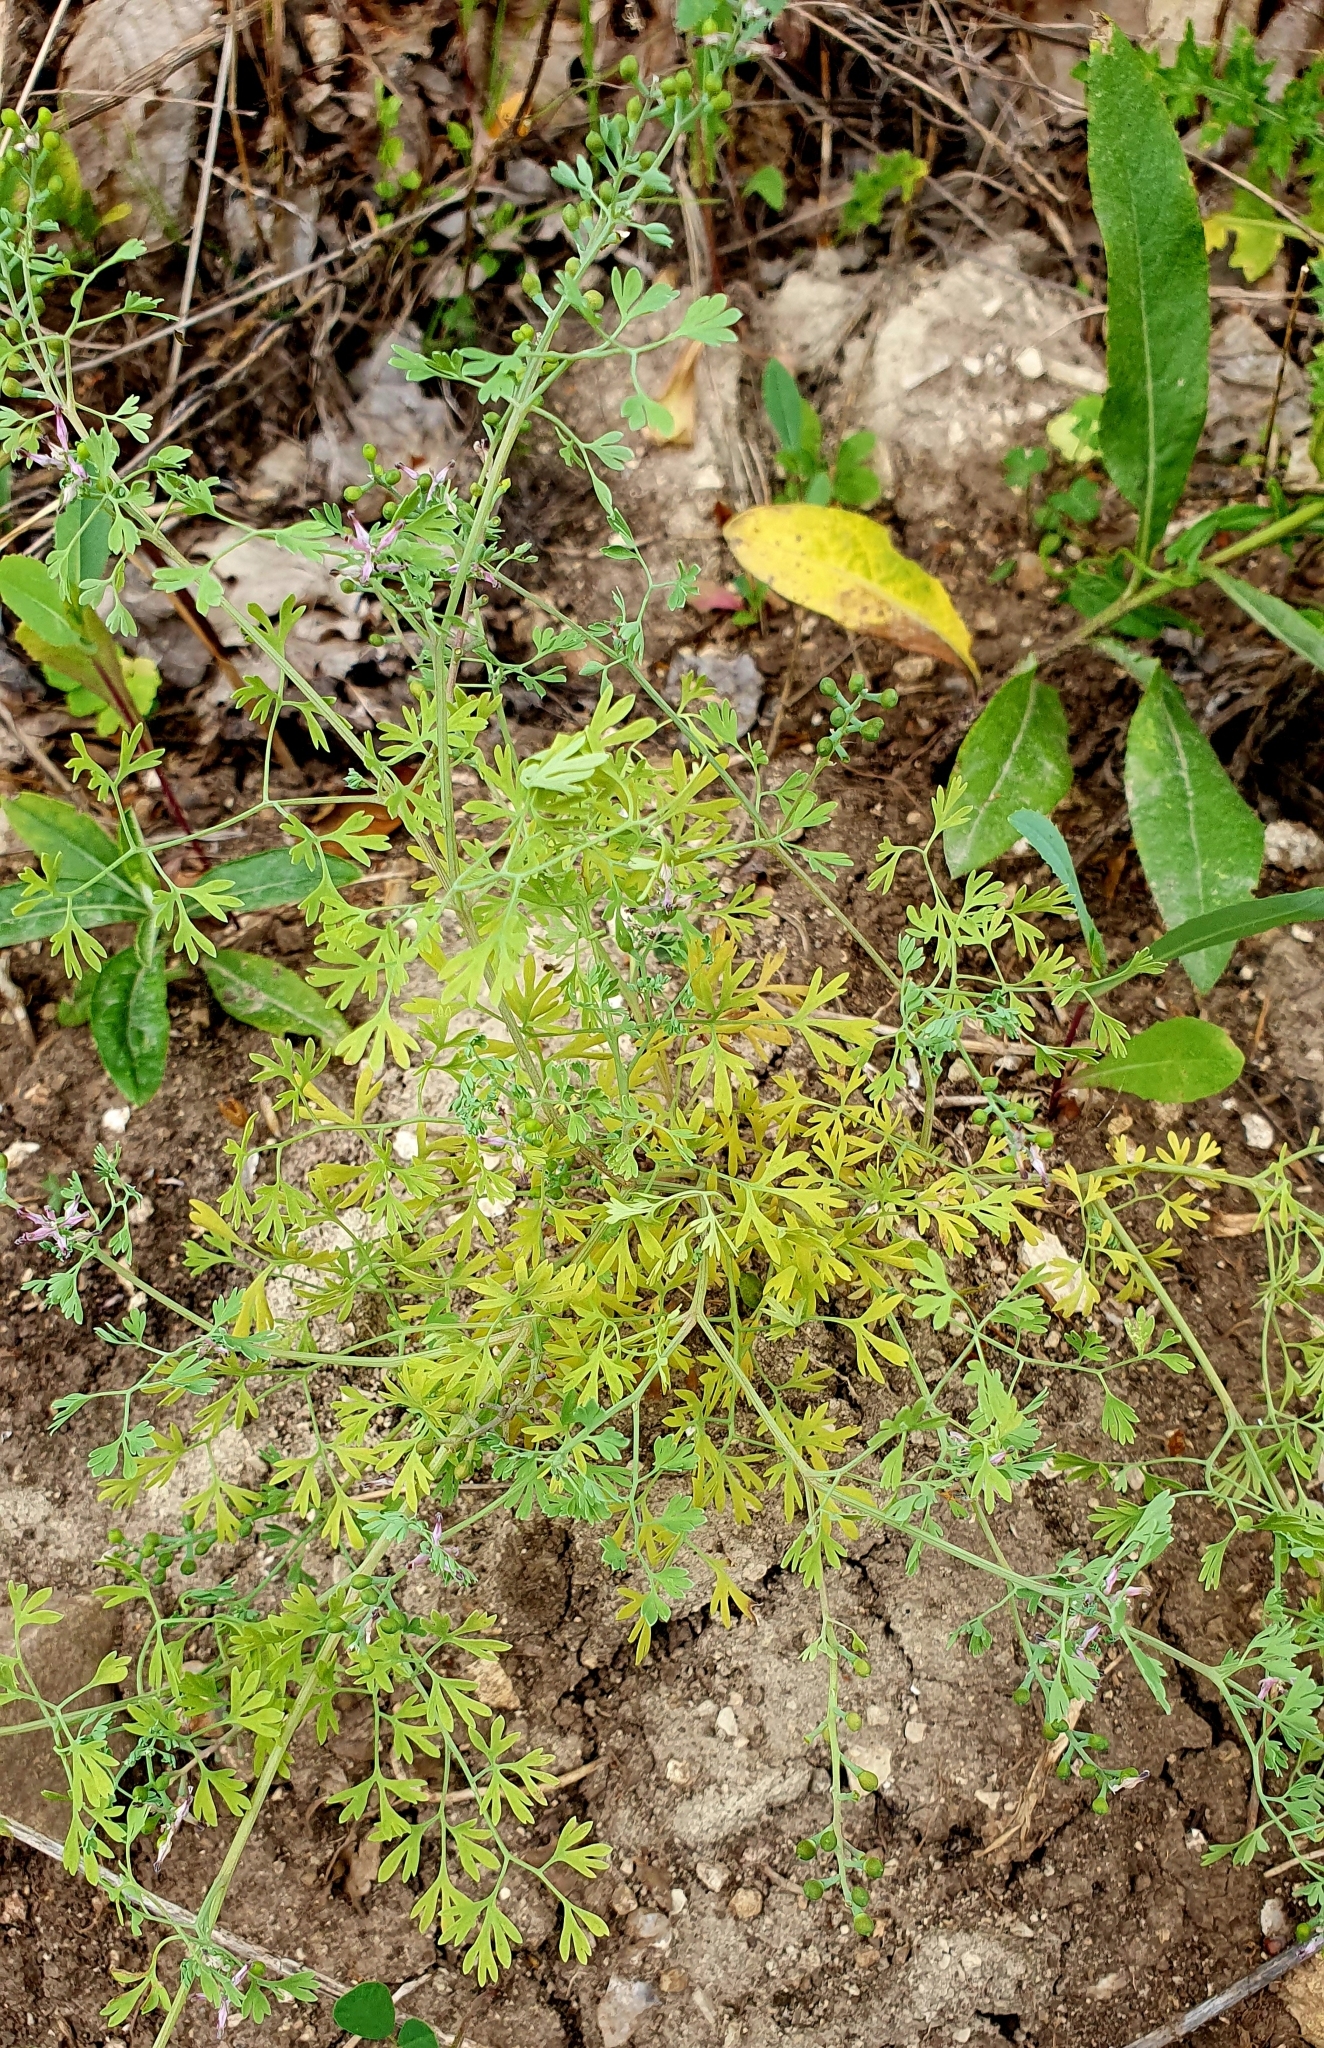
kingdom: Plantae
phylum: Tracheophyta
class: Magnoliopsida
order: Ranunculales
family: Papaveraceae
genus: Fumaria
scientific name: Fumaria schleicheri
